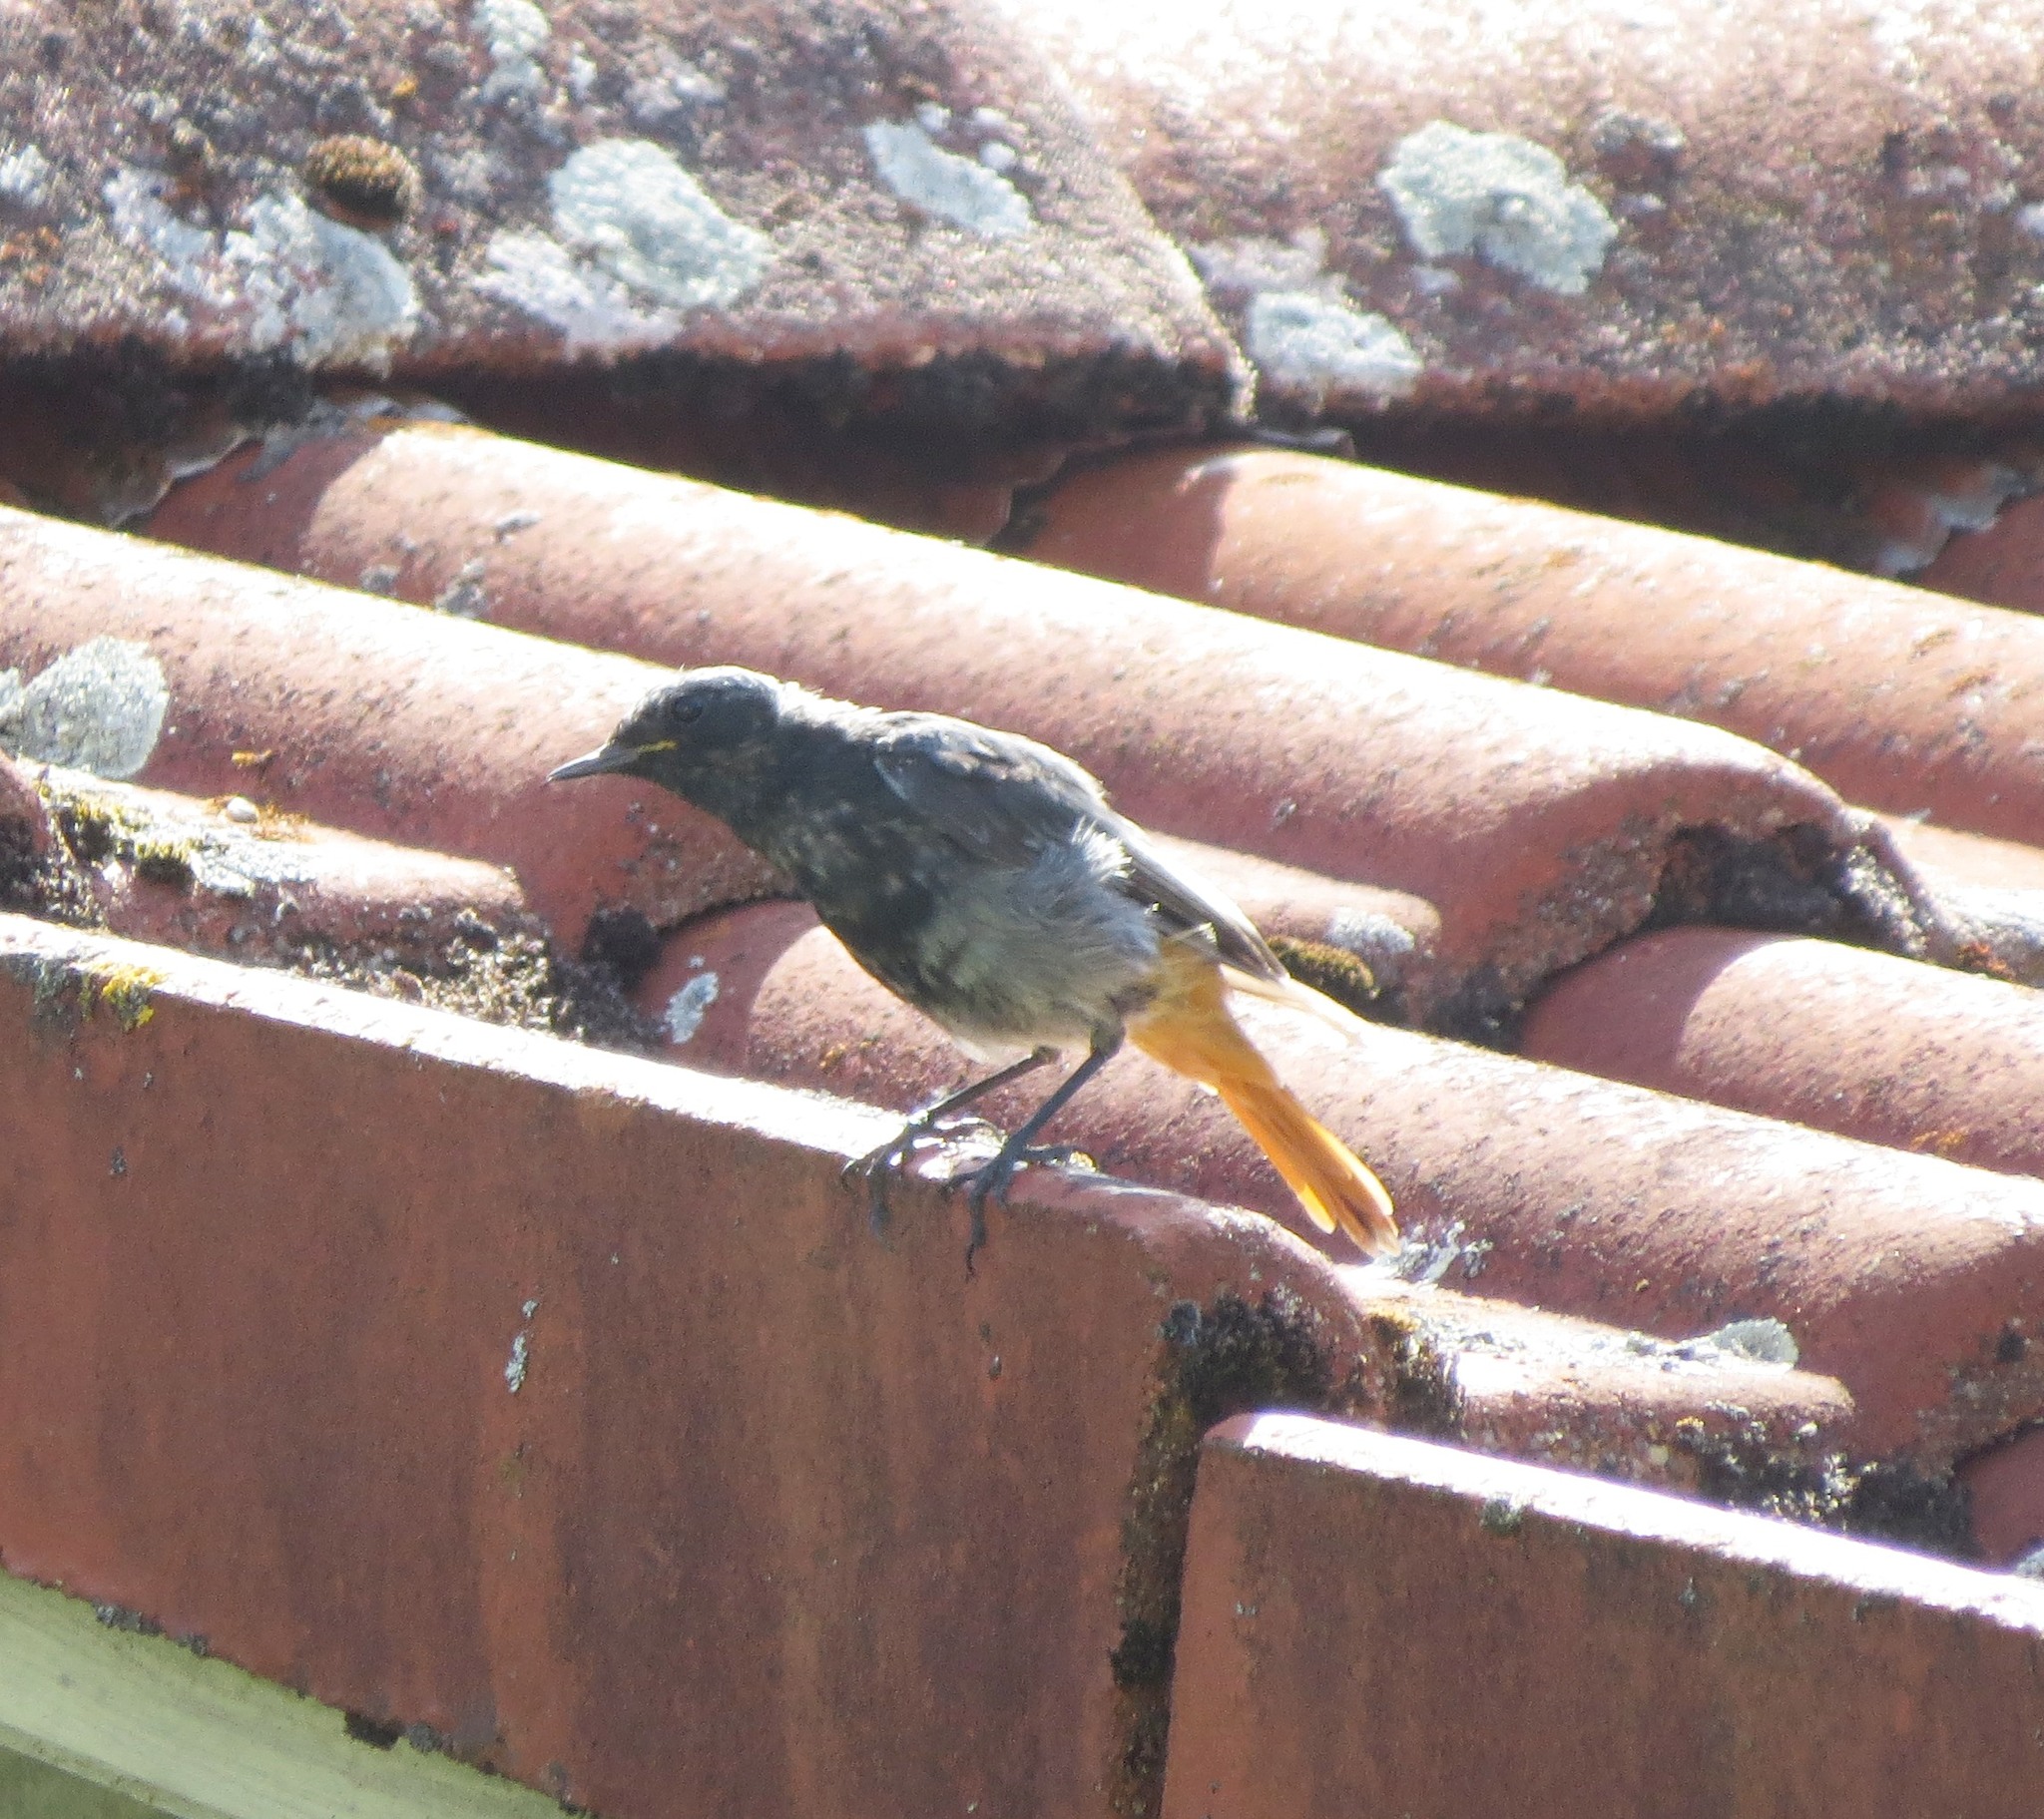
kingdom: Animalia
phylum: Chordata
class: Aves
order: Passeriformes
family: Muscicapidae
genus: Phoenicurus
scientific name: Phoenicurus ochruros
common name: Black redstart
